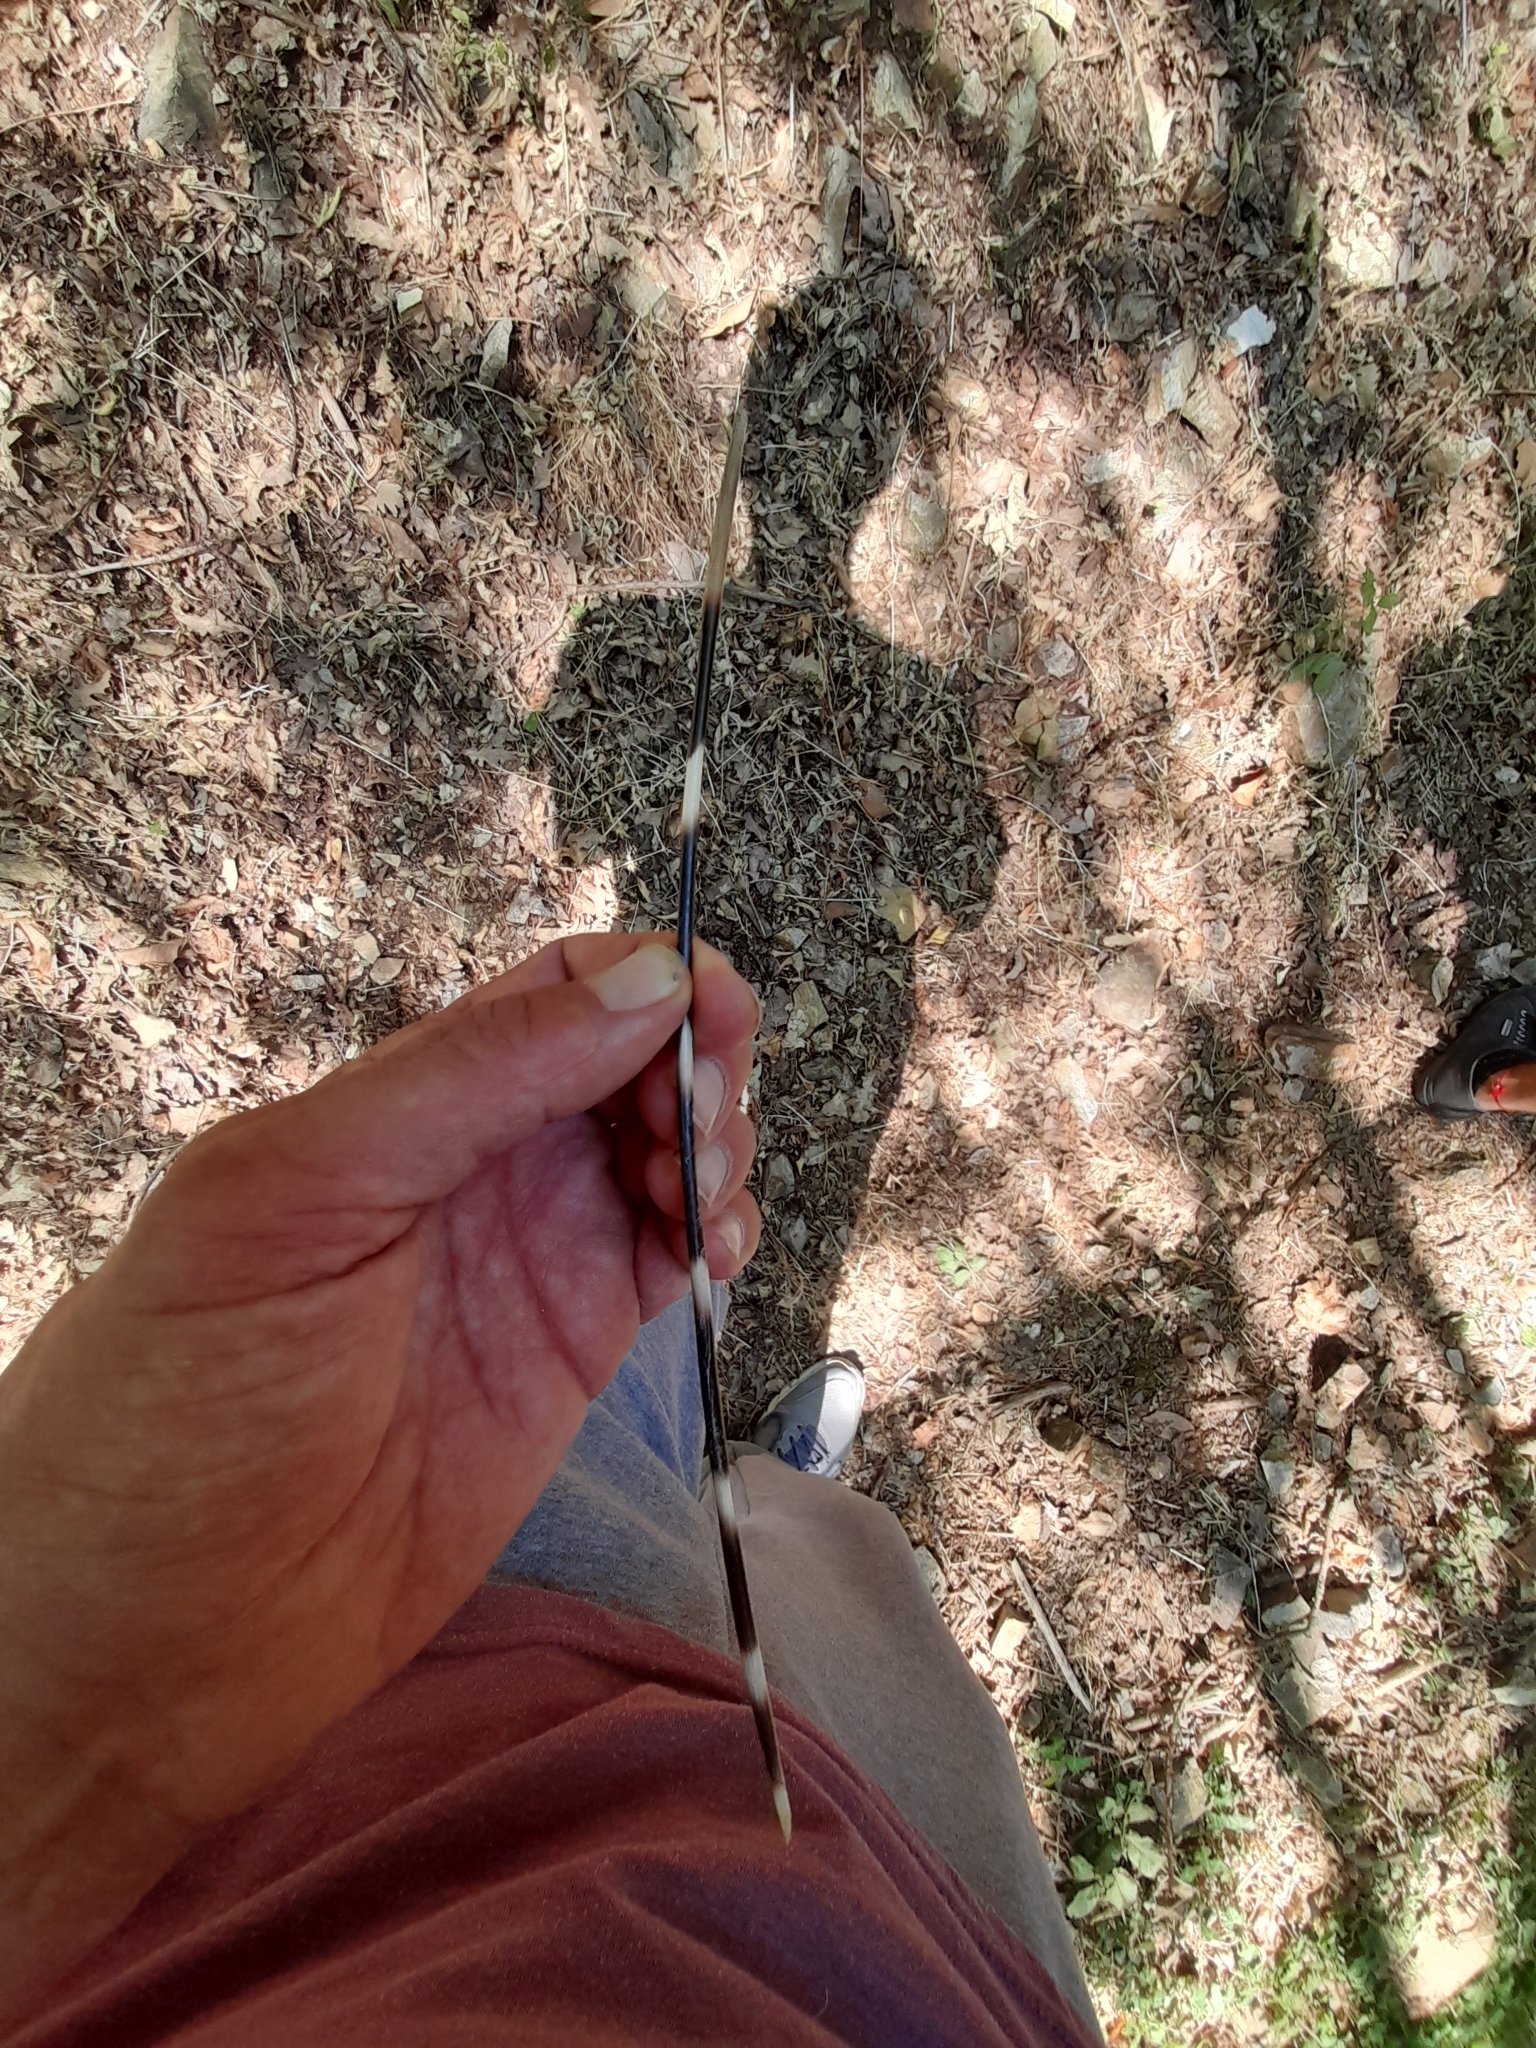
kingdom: Animalia
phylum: Chordata
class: Mammalia
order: Rodentia
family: Hystricidae
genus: Hystrix
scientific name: Hystrix cristata
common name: Crested porcupine
